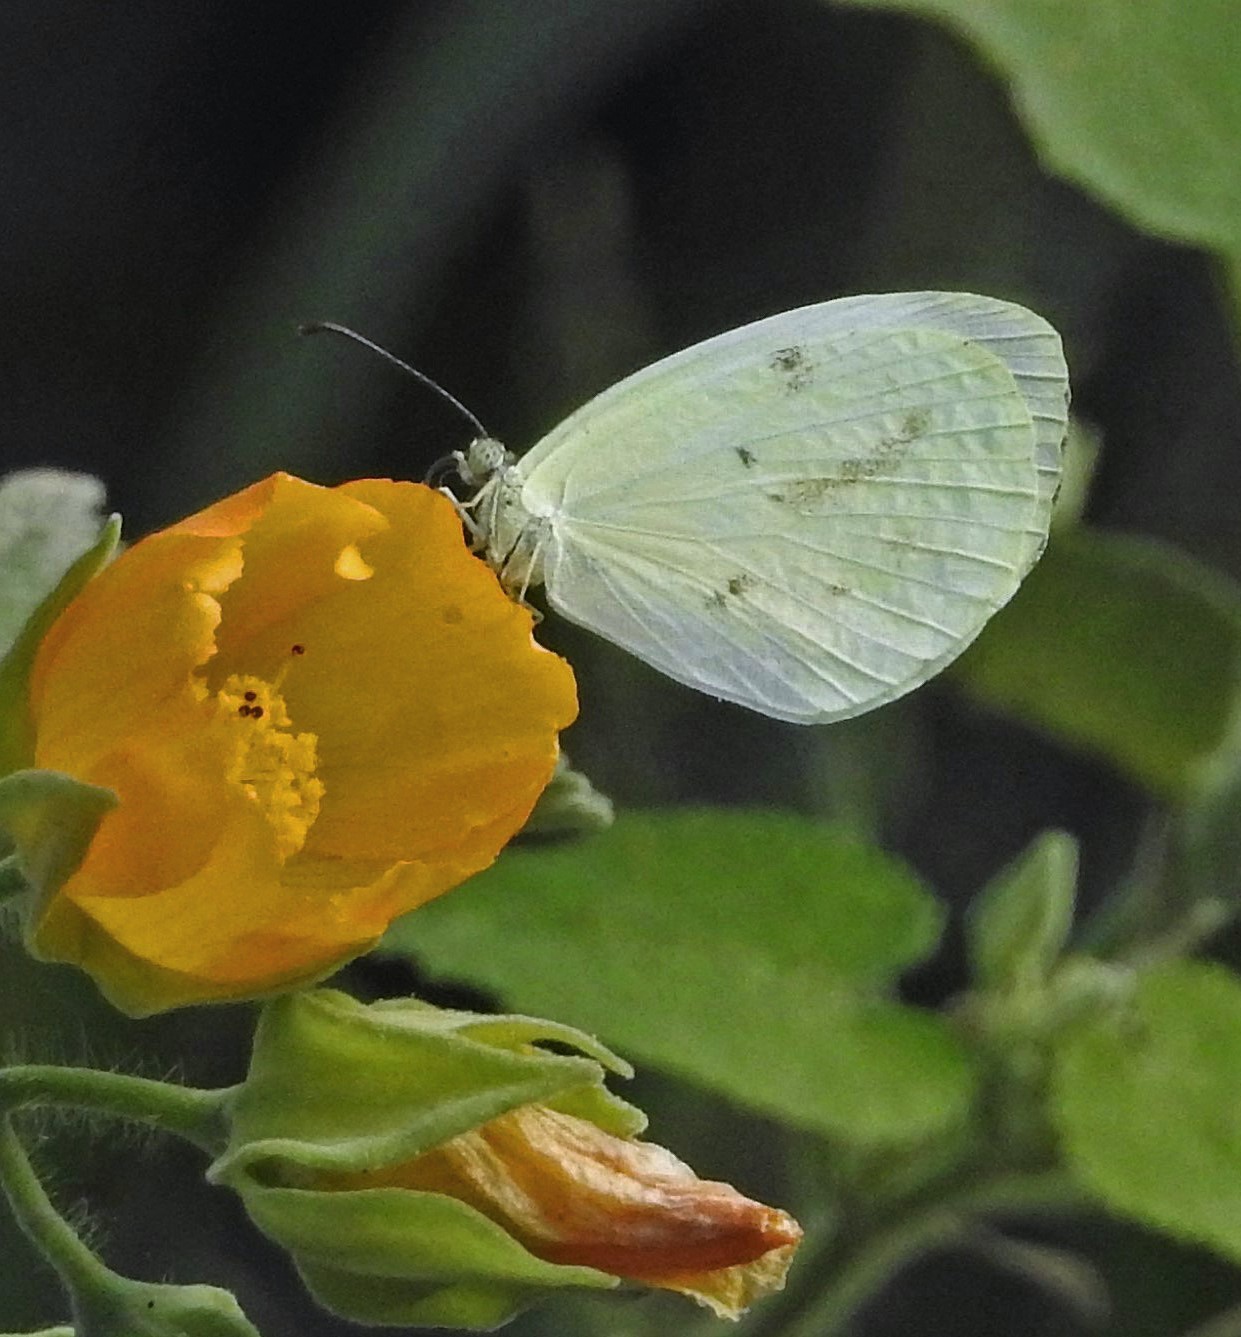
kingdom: Animalia
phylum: Arthropoda
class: Insecta
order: Lepidoptera
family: Pieridae
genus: Abaeis
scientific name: Abaeis albula
